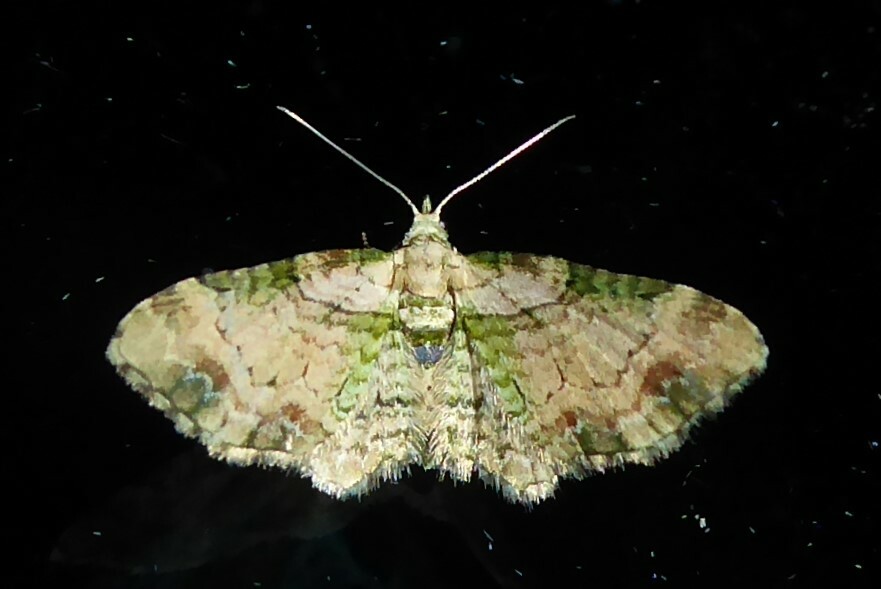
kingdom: Animalia
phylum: Arthropoda
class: Insecta
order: Lepidoptera
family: Geometridae
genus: Chloroclystis
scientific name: Chloroclystis
